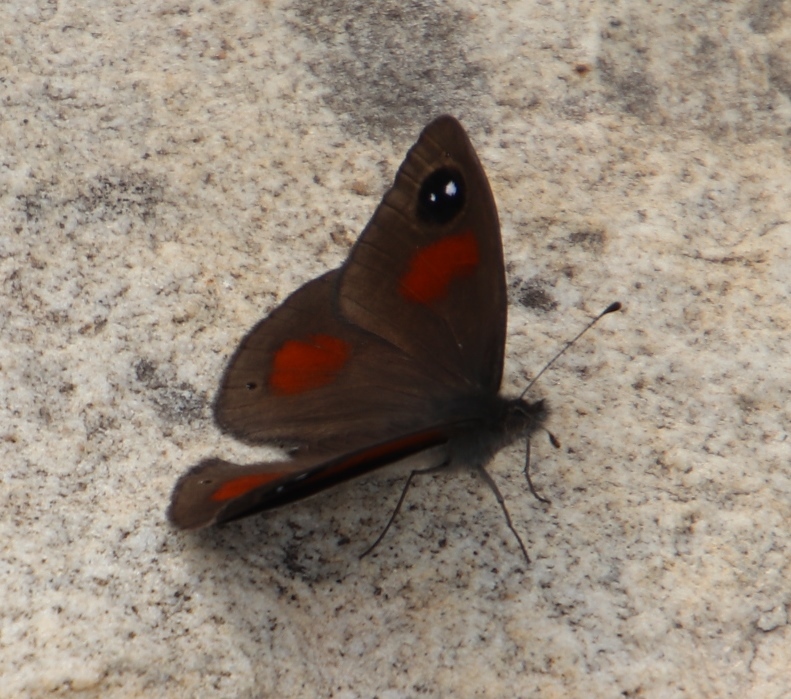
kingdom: Animalia
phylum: Arthropoda
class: Insecta
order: Lepidoptera
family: Nymphalidae
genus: Erebia
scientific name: Erebia
